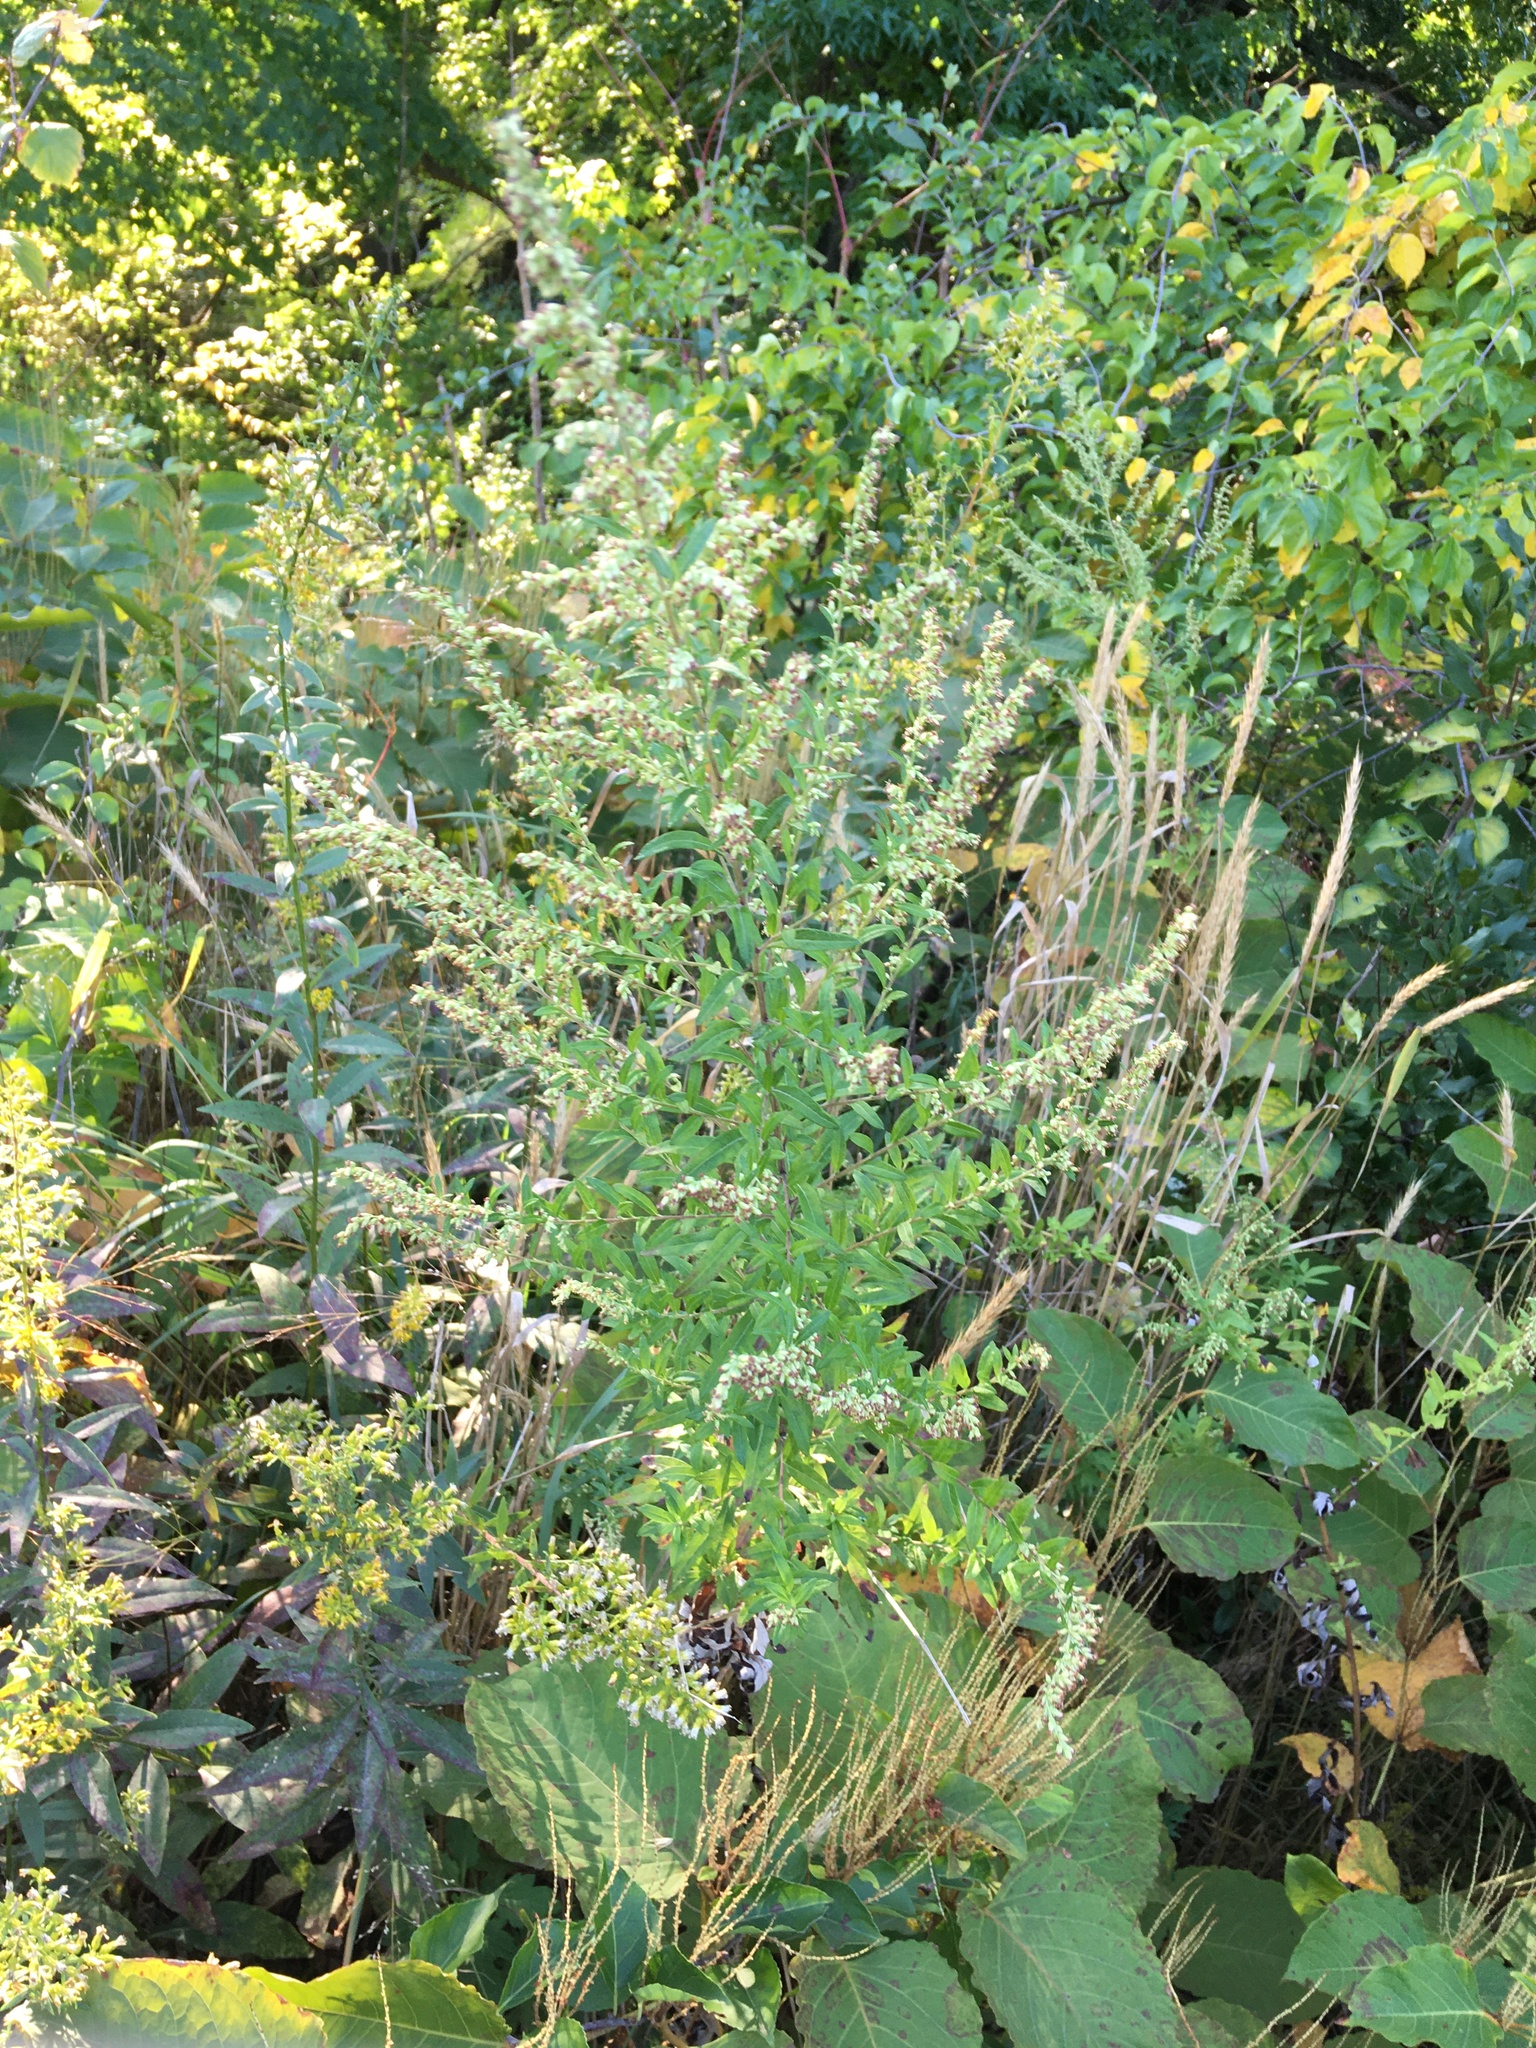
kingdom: Plantae
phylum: Tracheophyta
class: Magnoliopsida
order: Asterales
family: Asteraceae
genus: Artemisia
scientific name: Artemisia vulgaris
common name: Mugwort
